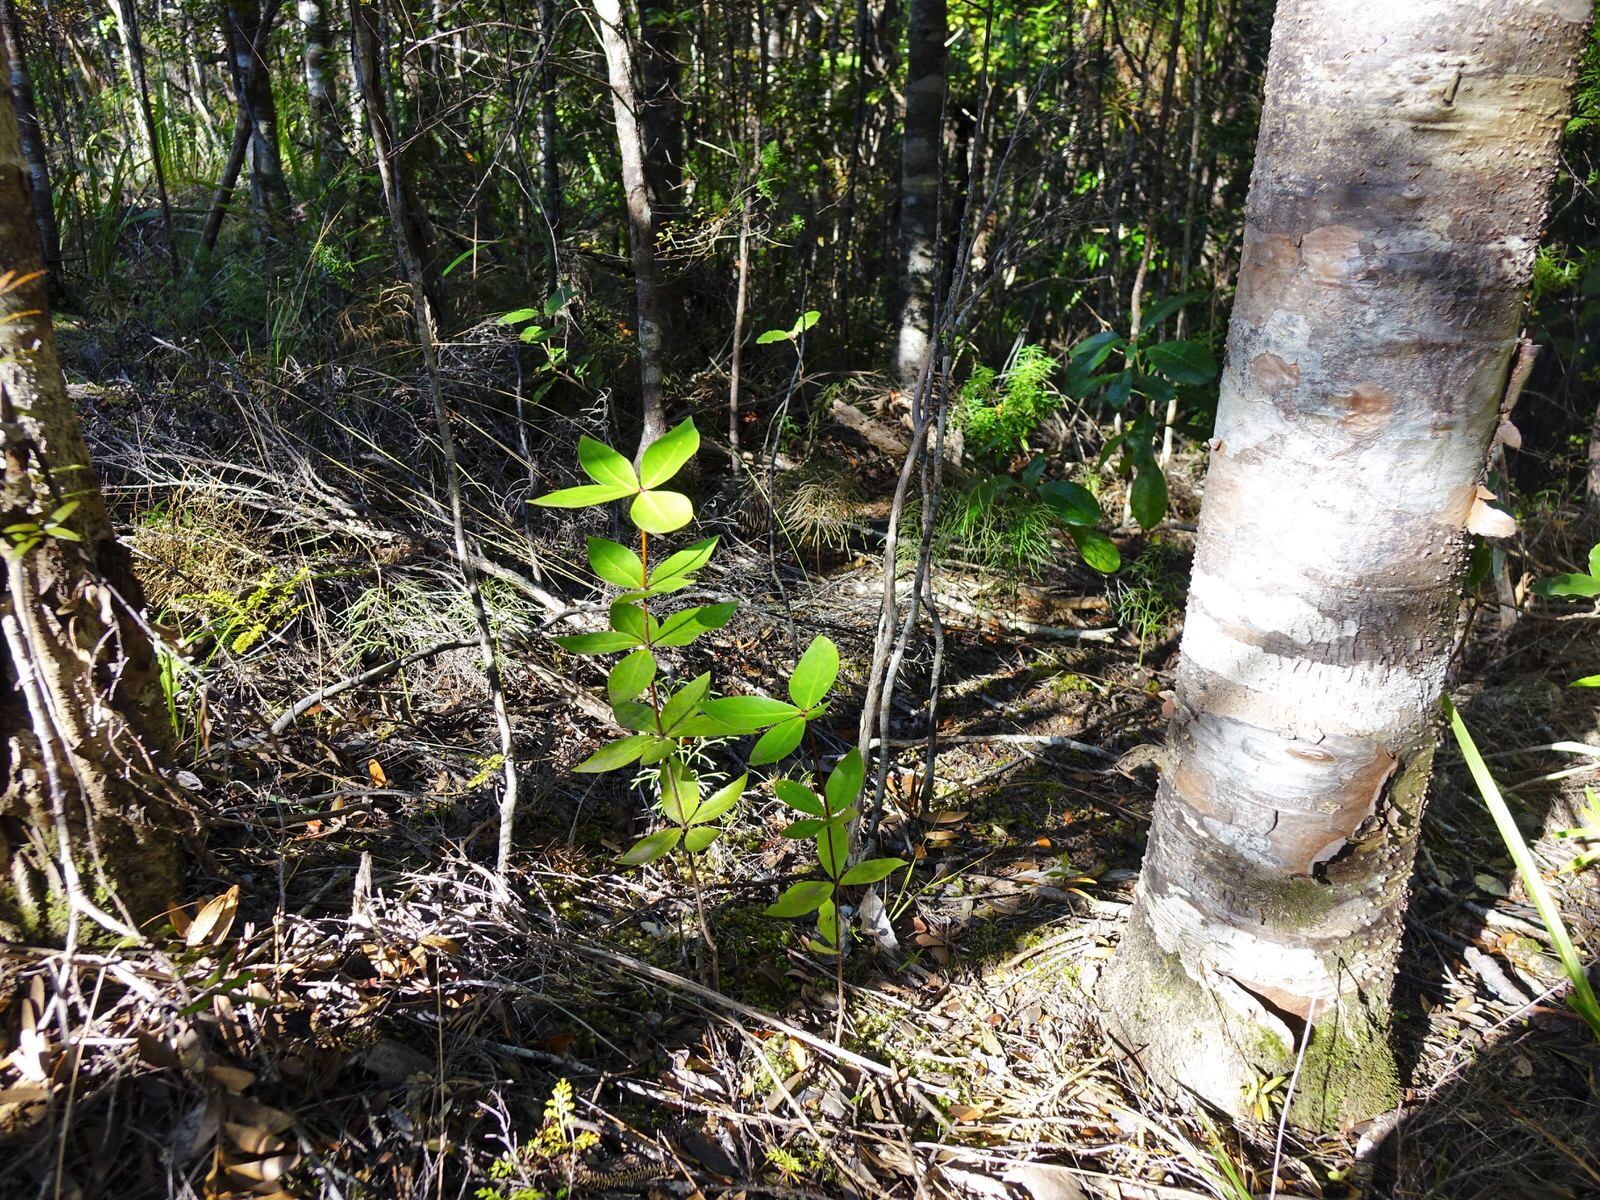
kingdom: Plantae
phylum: Tracheophyta
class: Magnoliopsida
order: Apiales
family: Pittosporaceae
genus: Pittosporum
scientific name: Pittosporum cornifolium
